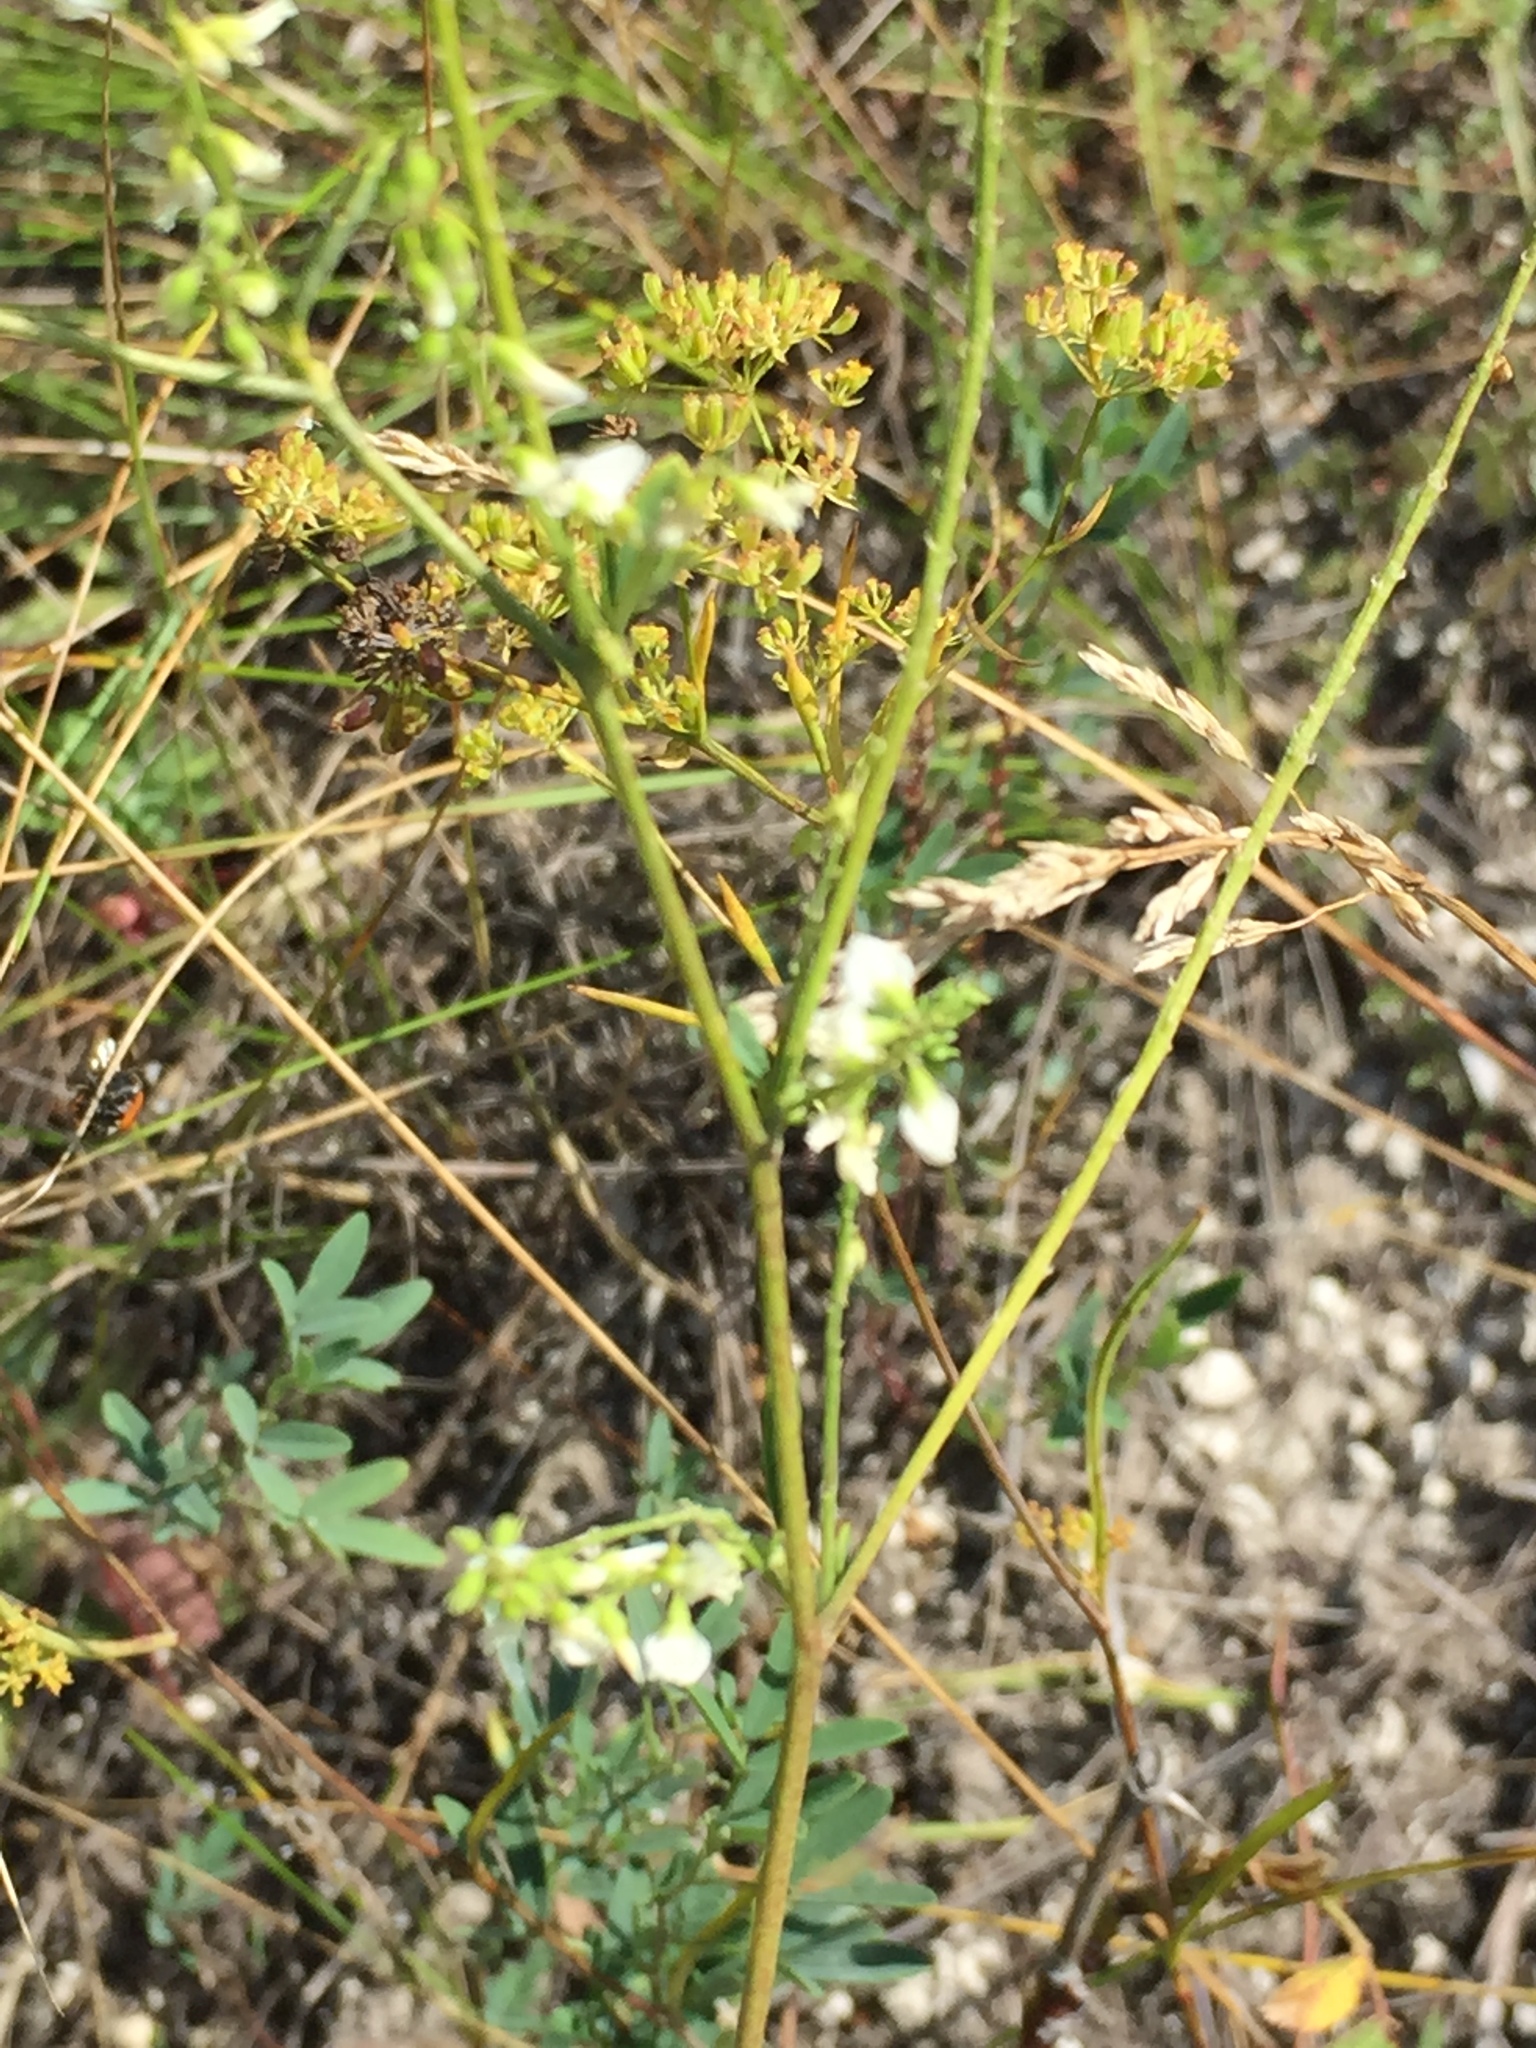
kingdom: Plantae
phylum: Tracheophyta
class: Magnoliopsida
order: Fabales
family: Fabaceae
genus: Melilotus
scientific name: Melilotus albus
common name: White melilot
